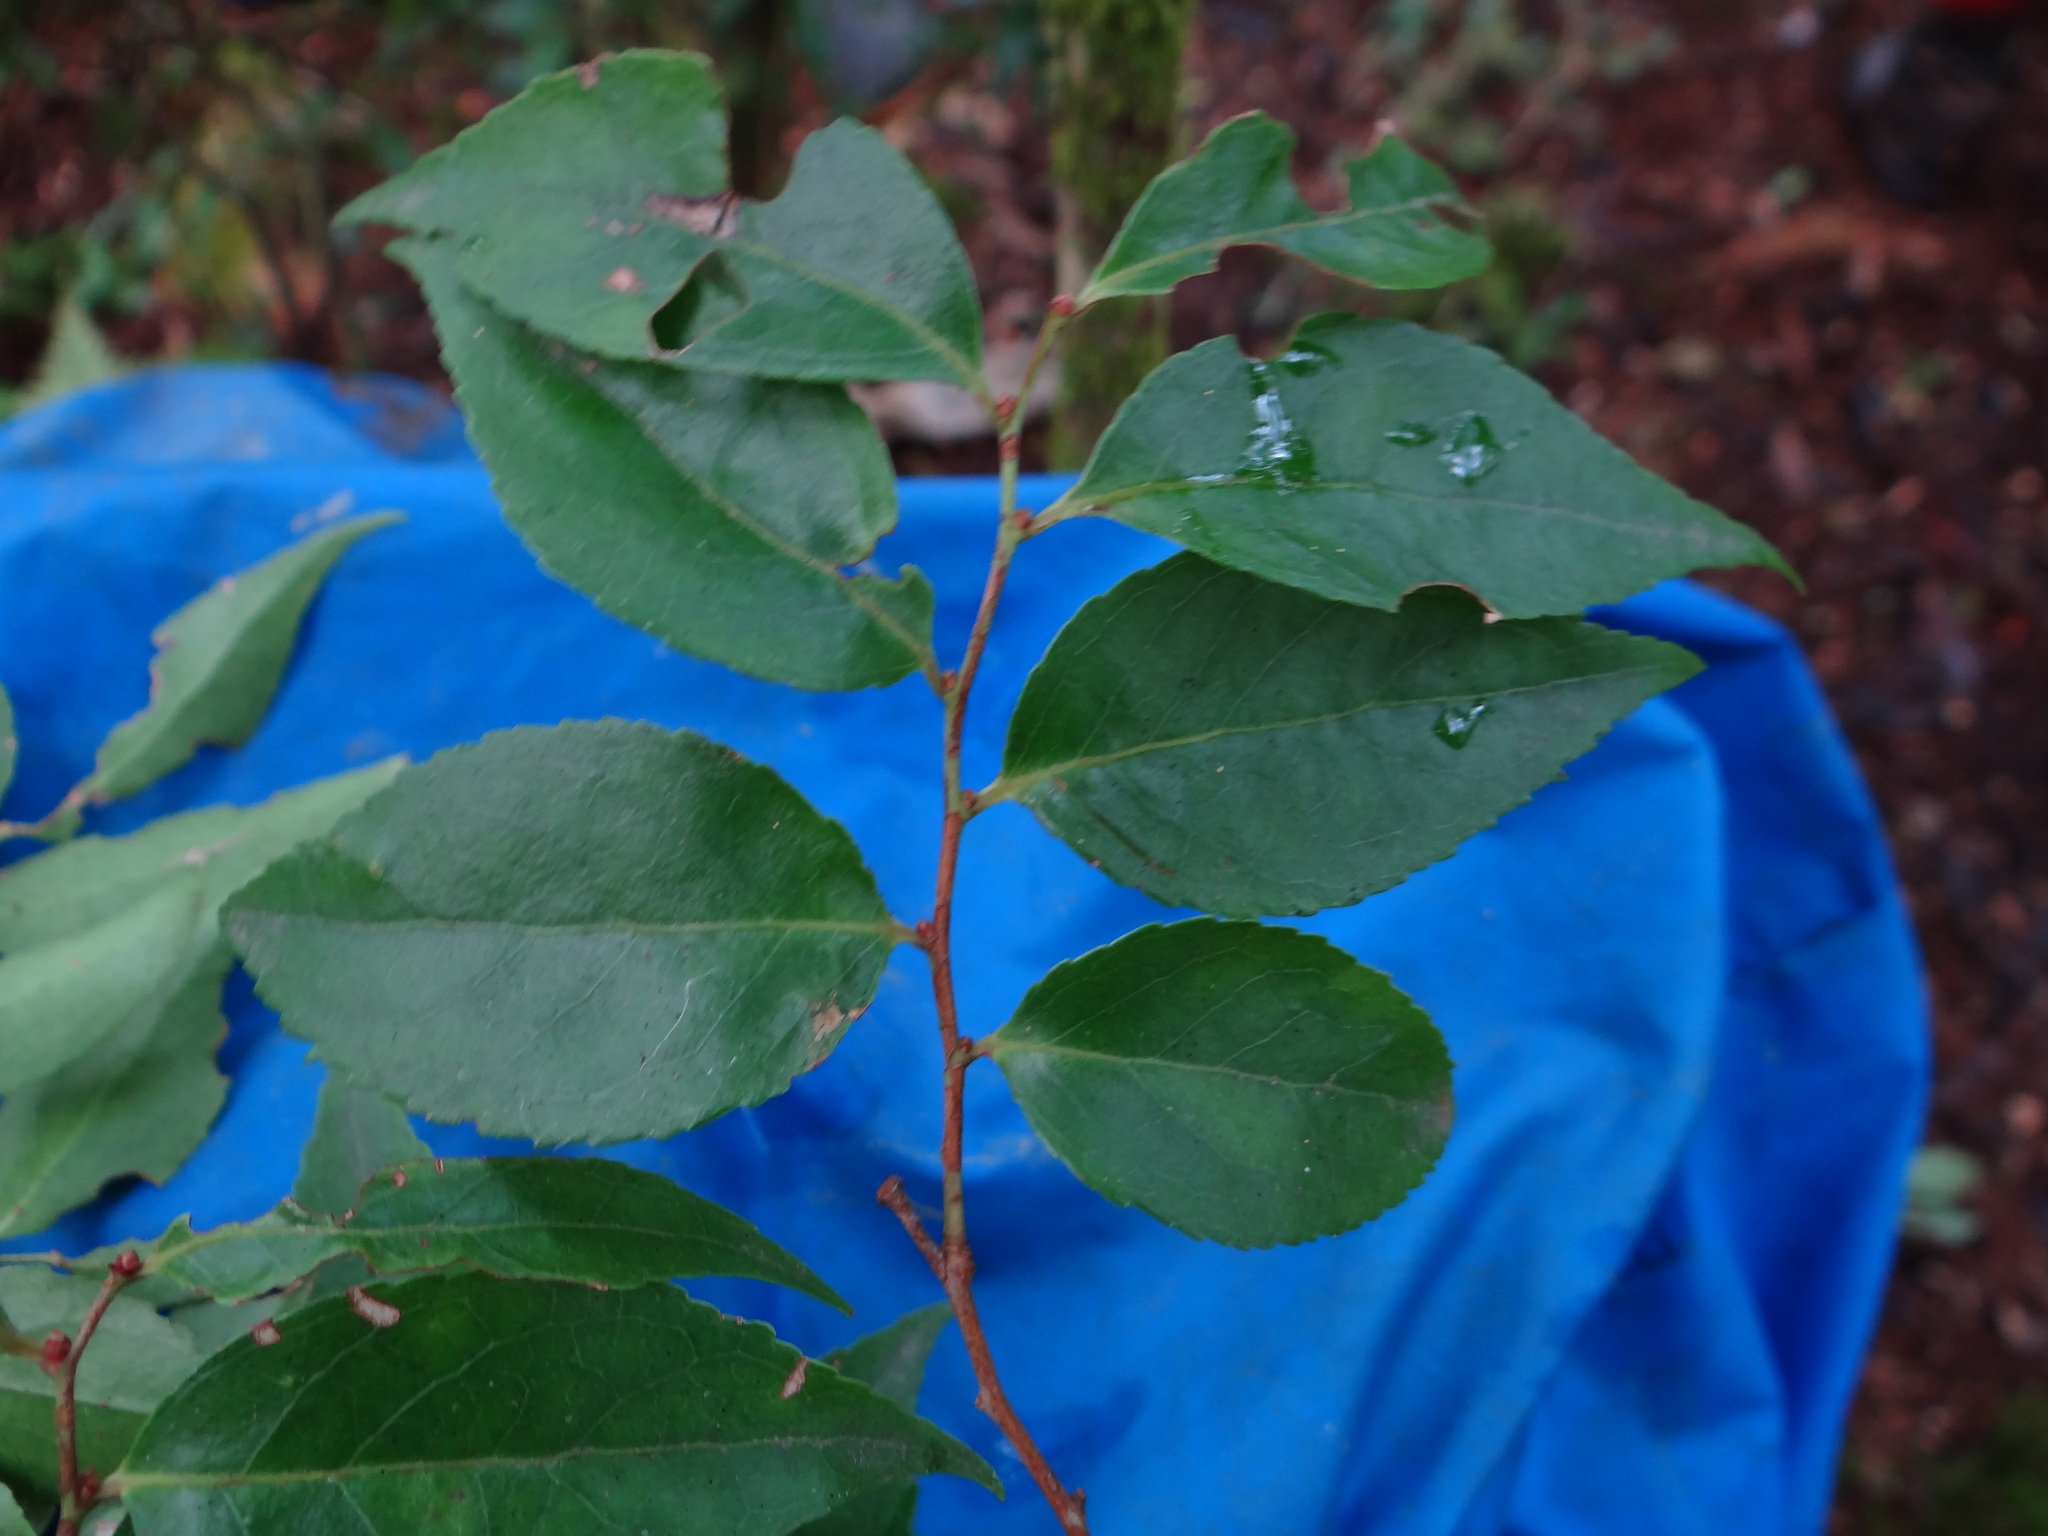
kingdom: Plantae
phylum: Tracheophyta
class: Magnoliopsida
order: Ericales
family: Ericaceae
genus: Vaccinium
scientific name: Vaccinium randaiensis
